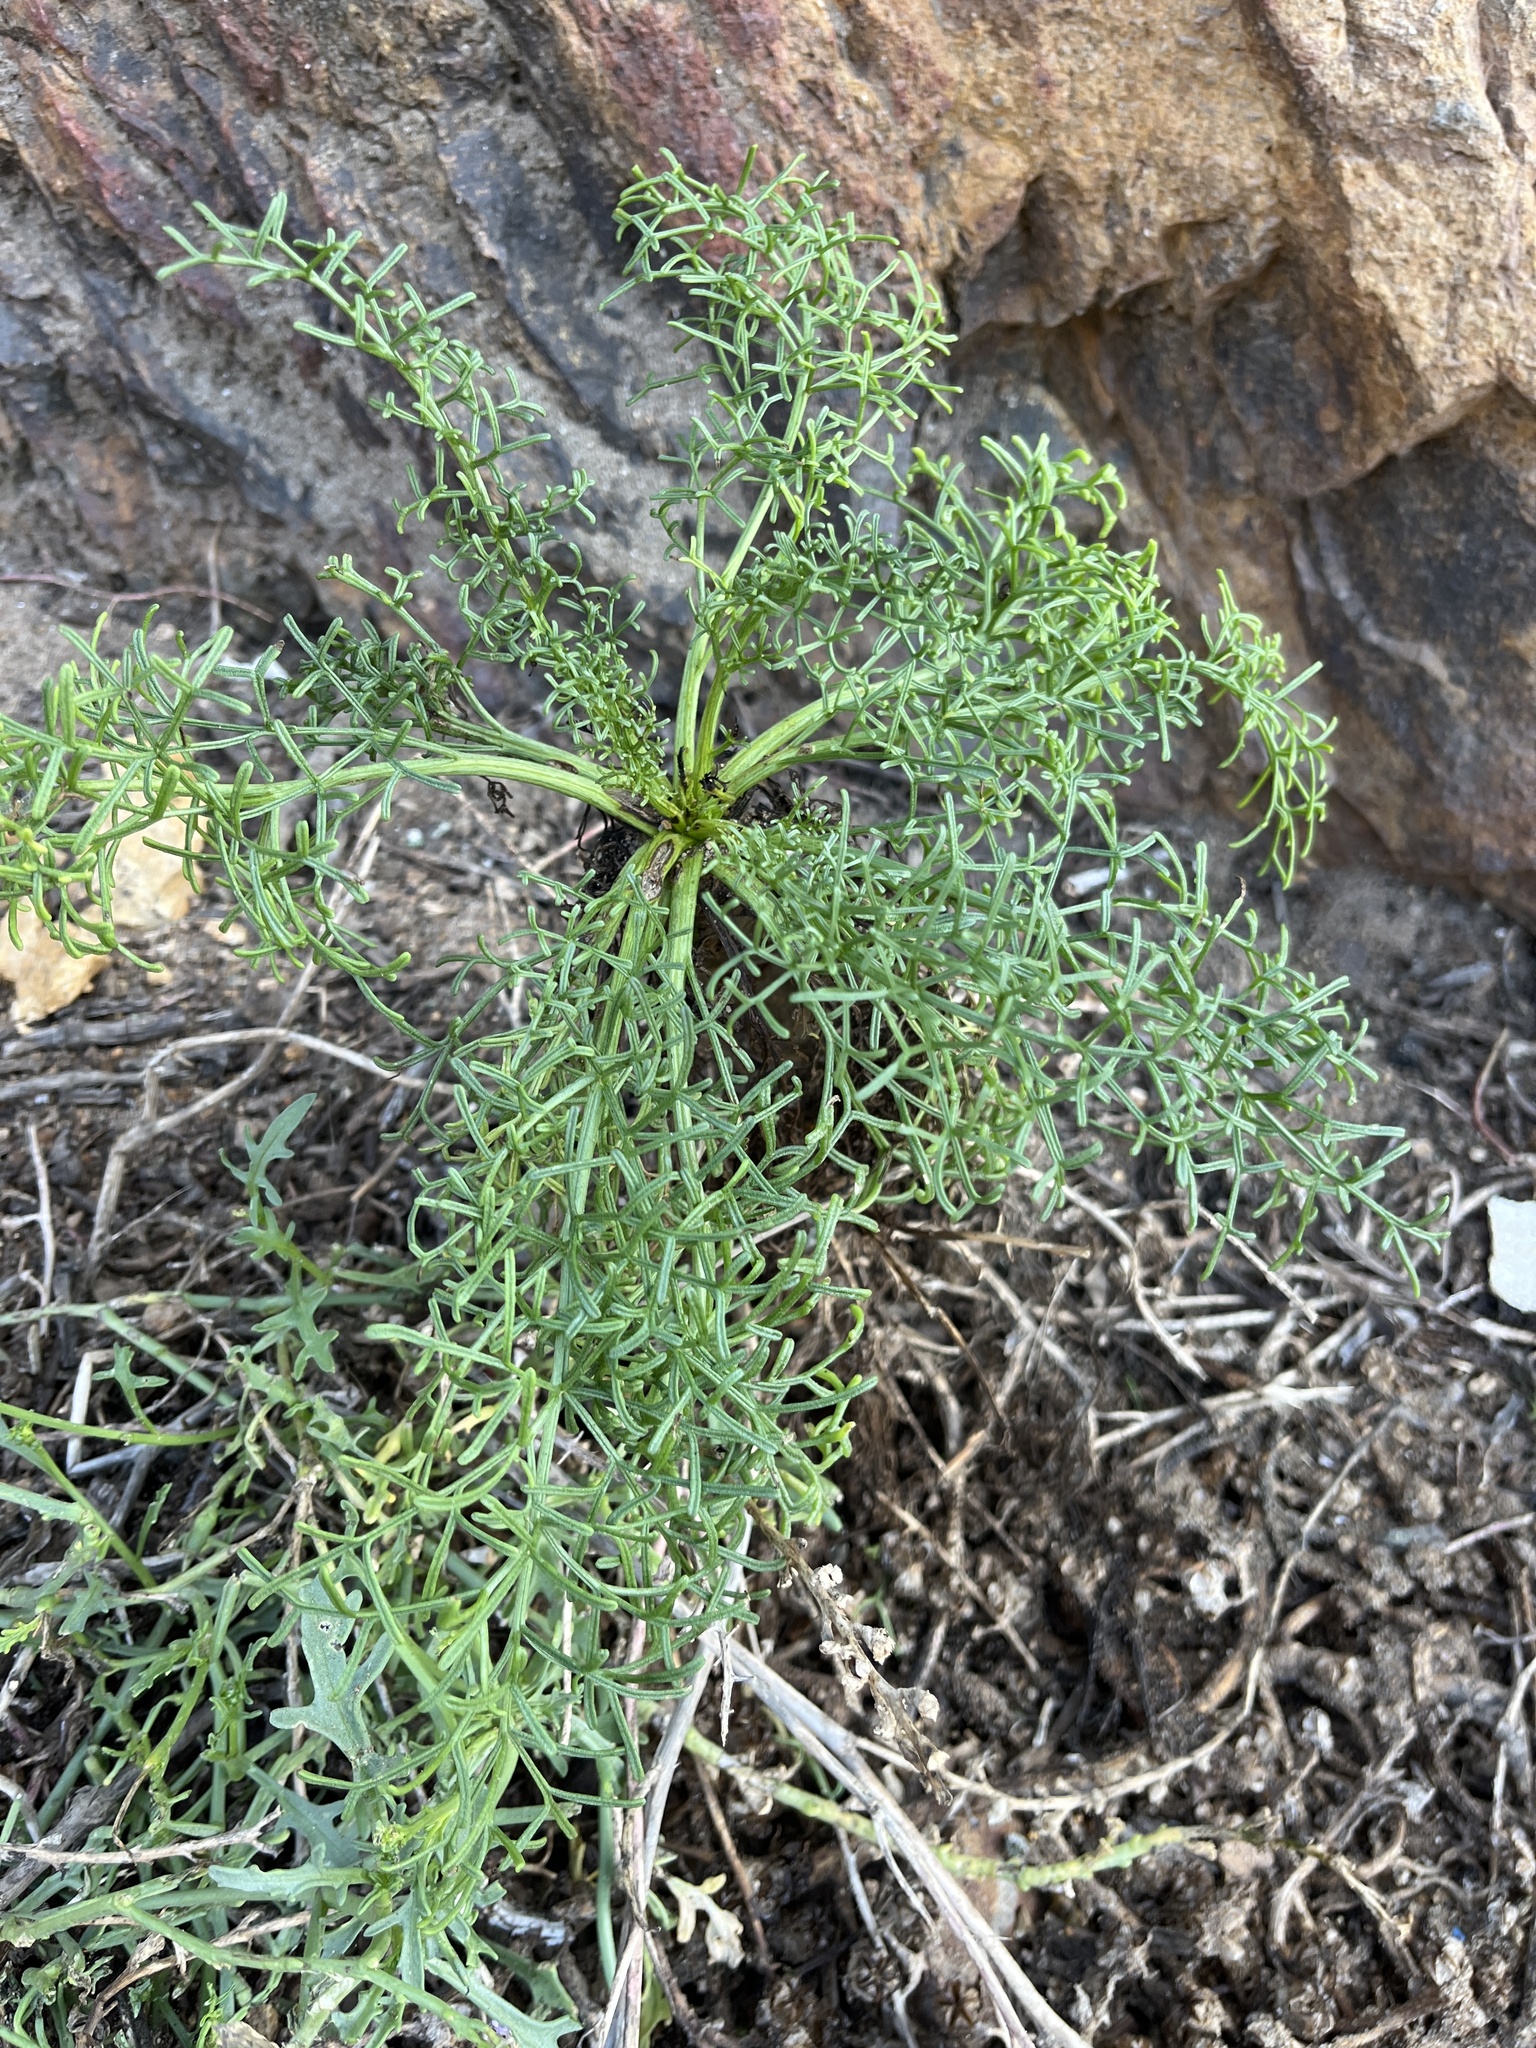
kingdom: Plantae
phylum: Tracheophyta
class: Magnoliopsida
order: Asterales
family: Asteraceae
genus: Coreopsis
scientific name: Coreopsis gigantea
